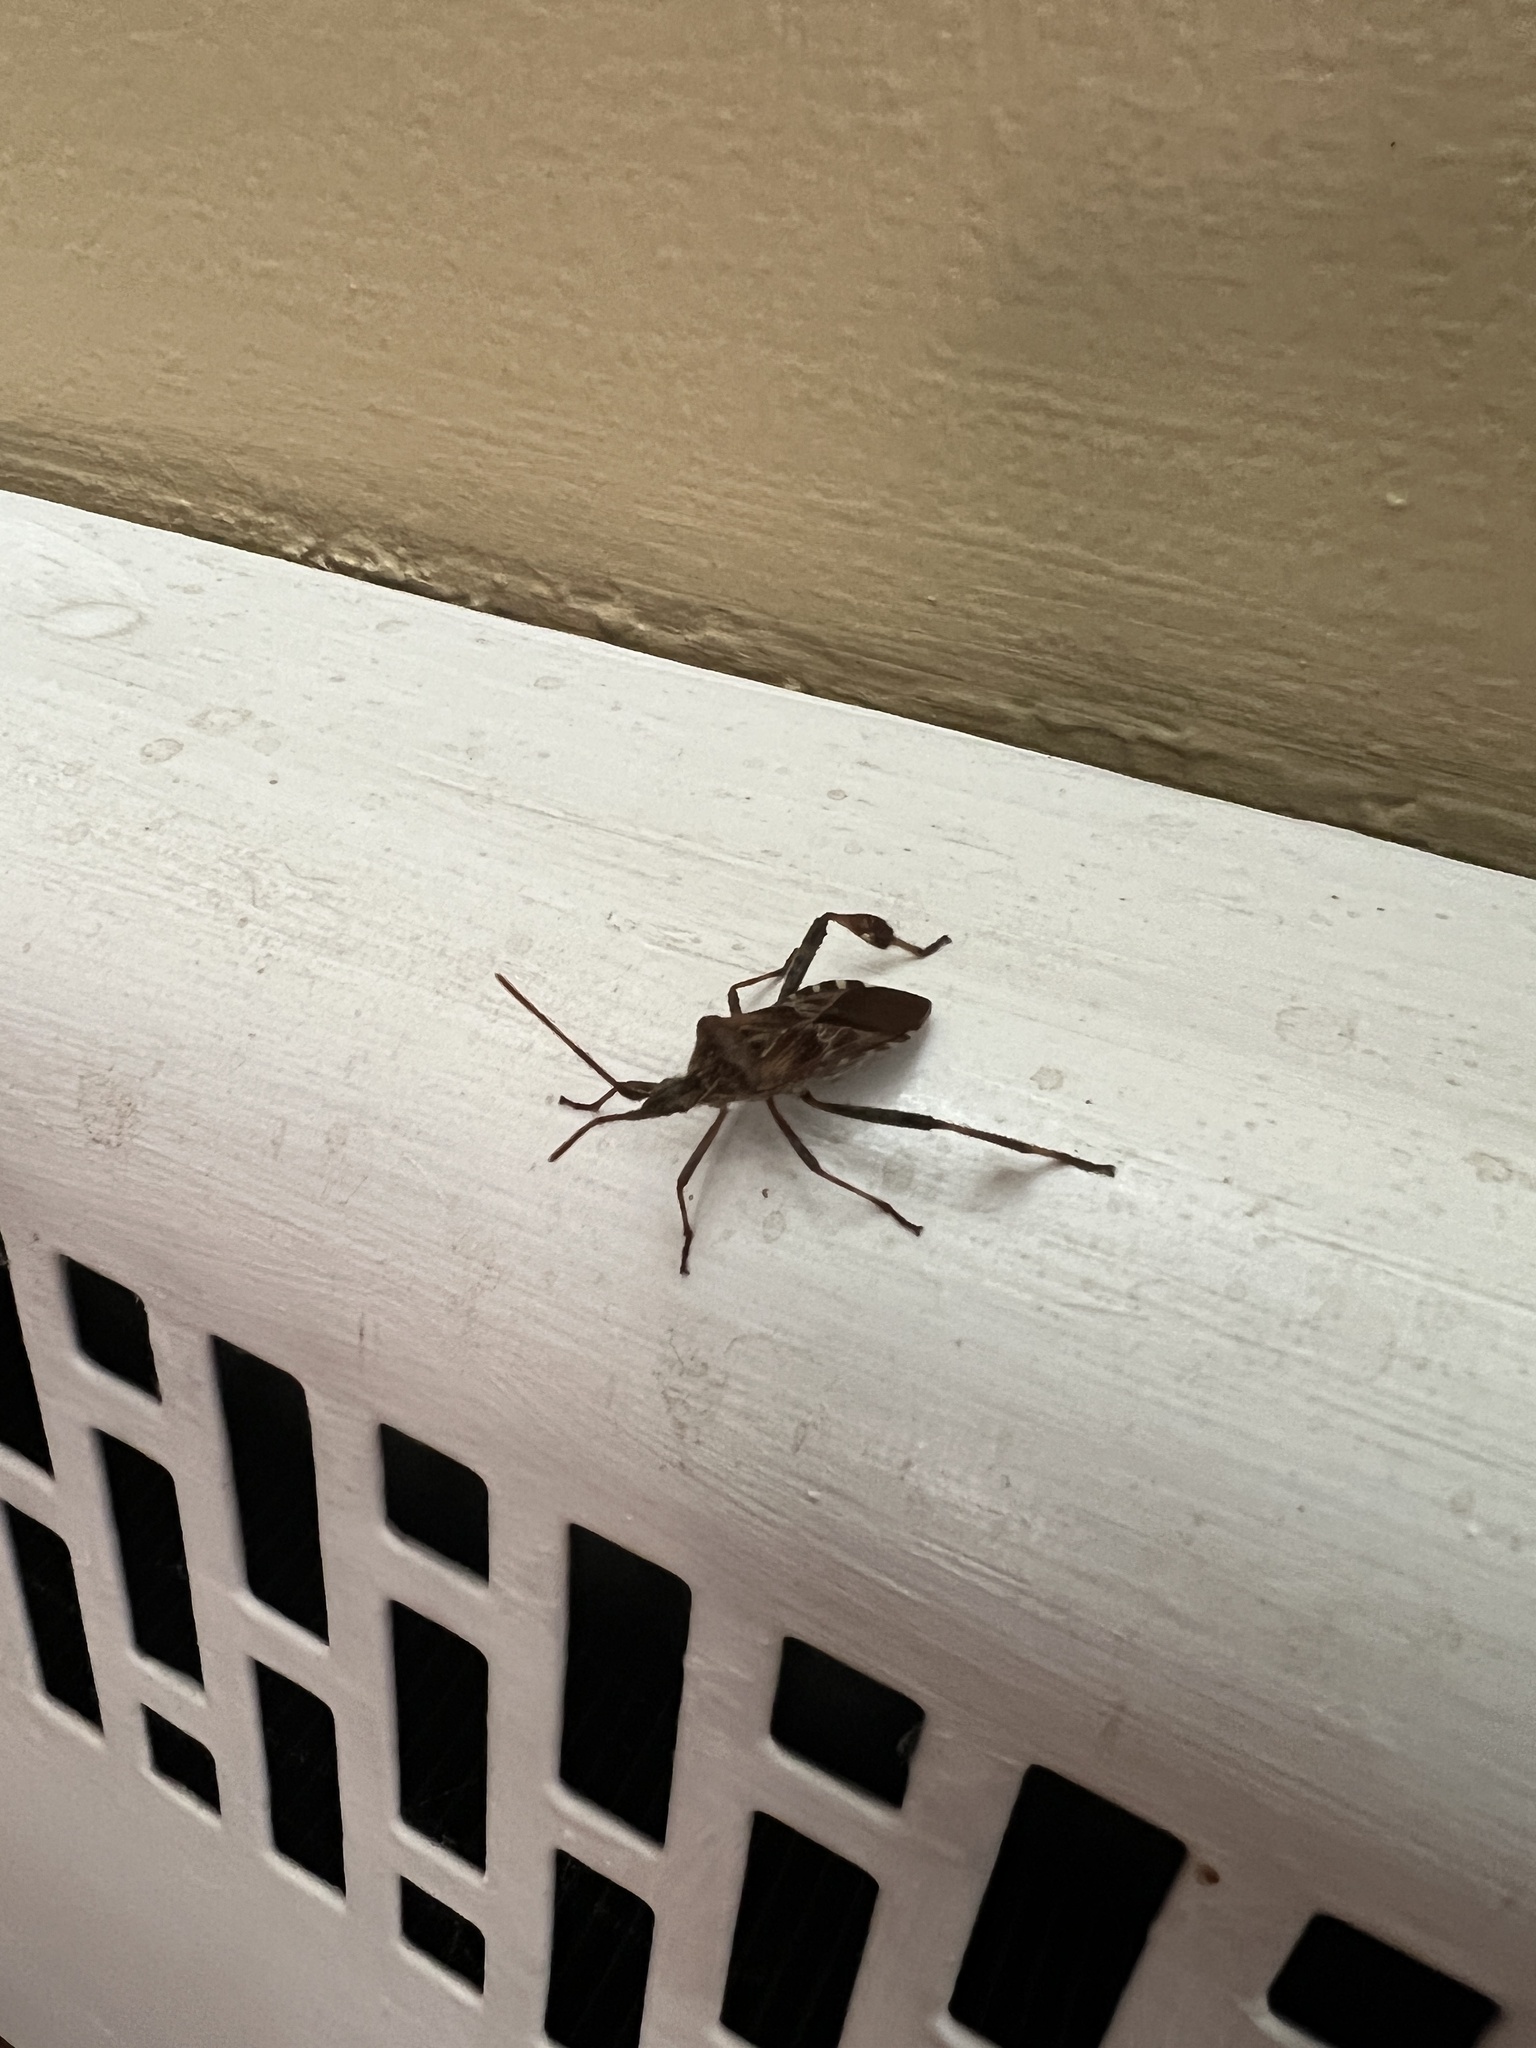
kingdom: Animalia
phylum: Arthropoda
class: Insecta
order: Hemiptera
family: Coreidae
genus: Leptoglossus
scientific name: Leptoglossus occidentalis
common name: Western conifer-seed bug
